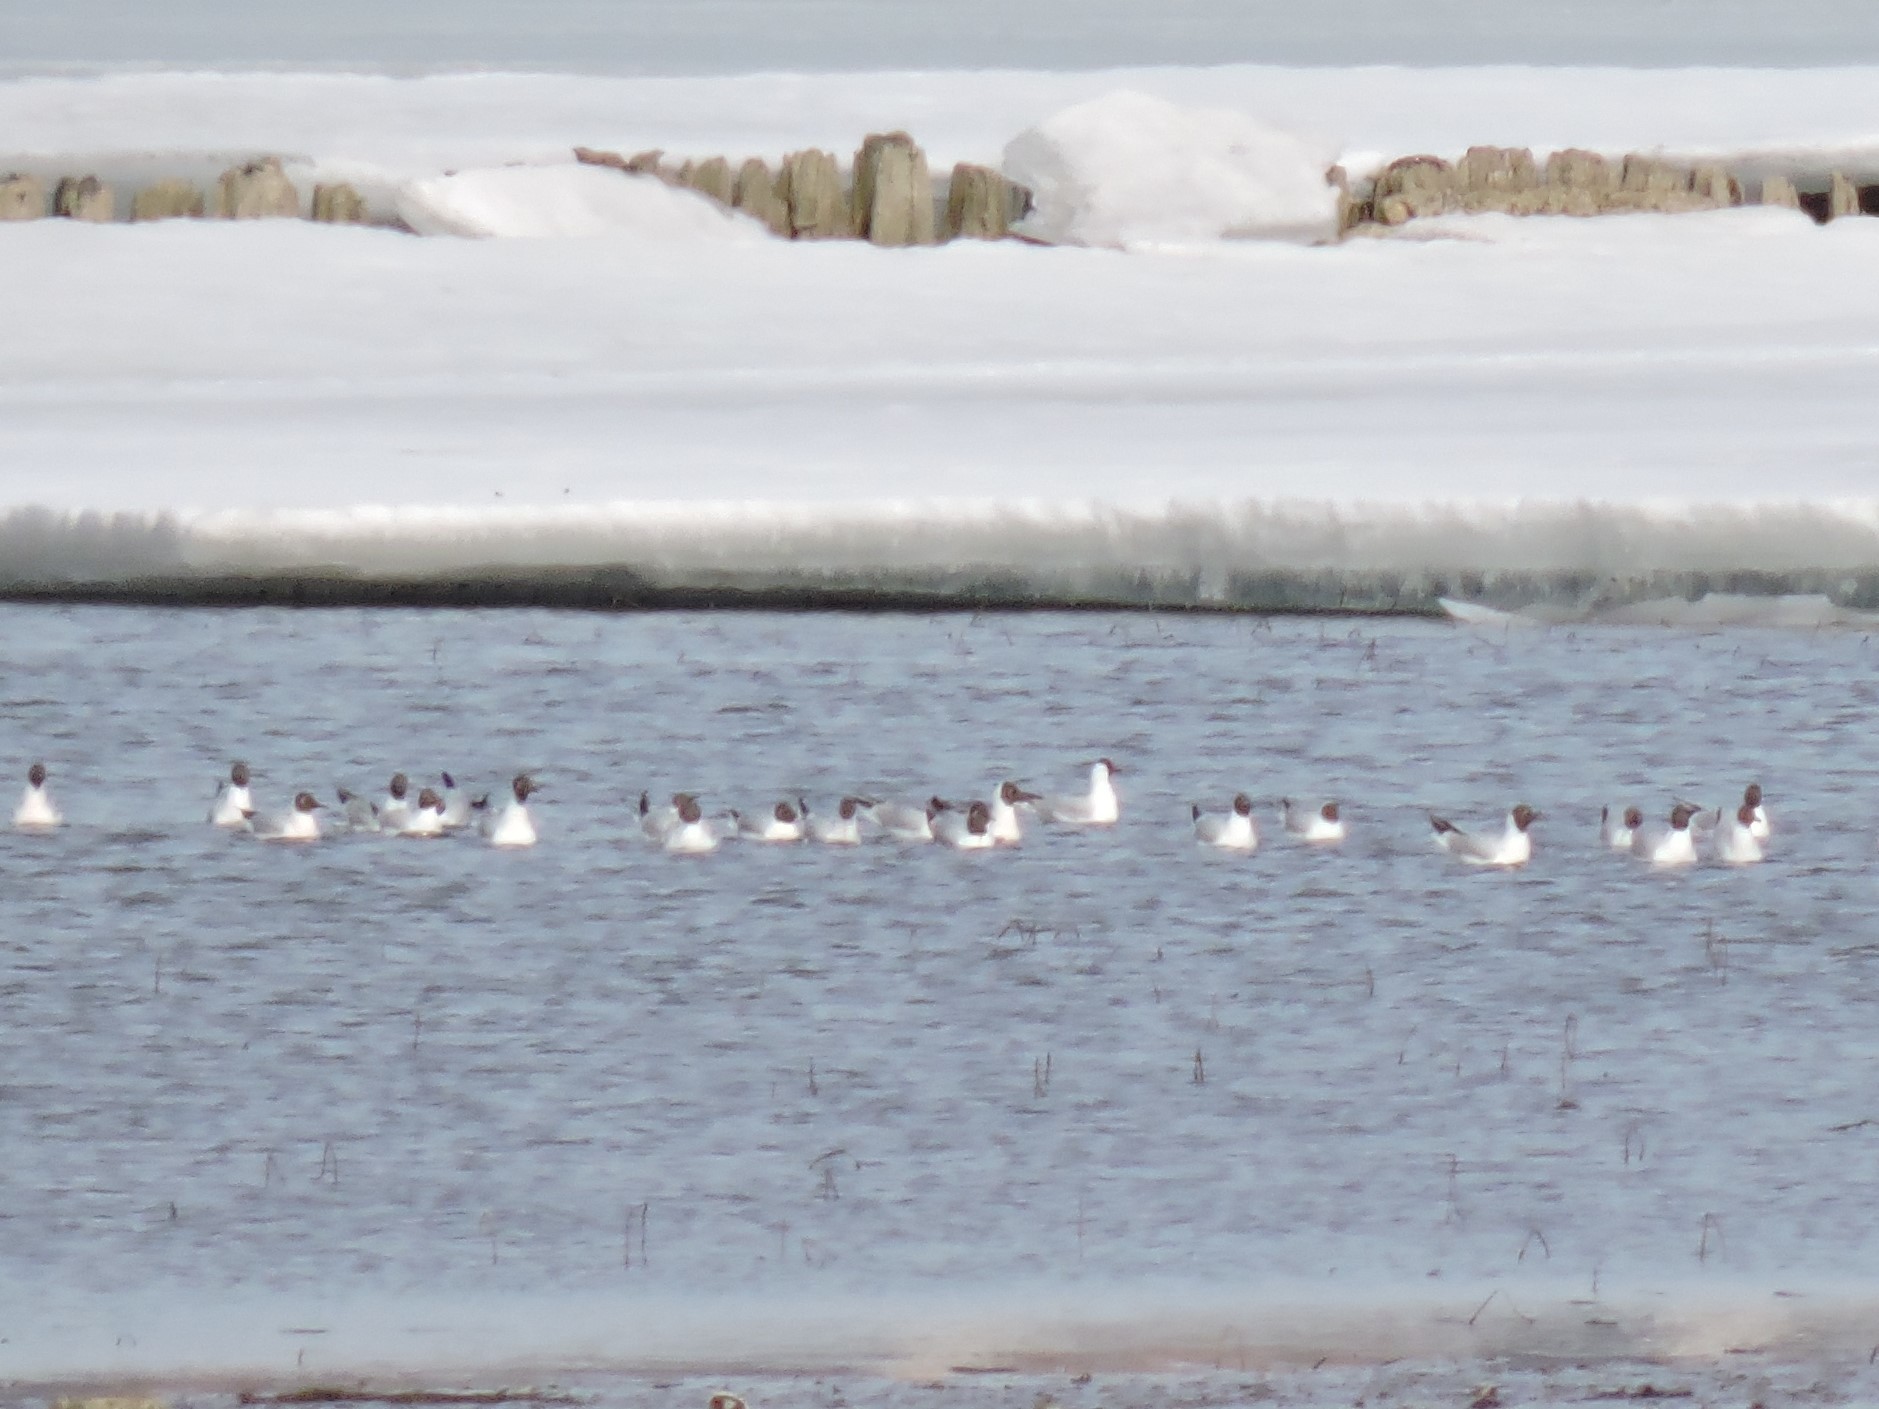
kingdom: Animalia
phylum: Chordata
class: Aves
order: Charadriiformes
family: Laridae
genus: Chroicocephalus
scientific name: Chroicocephalus ridibundus
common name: Black-headed gull
